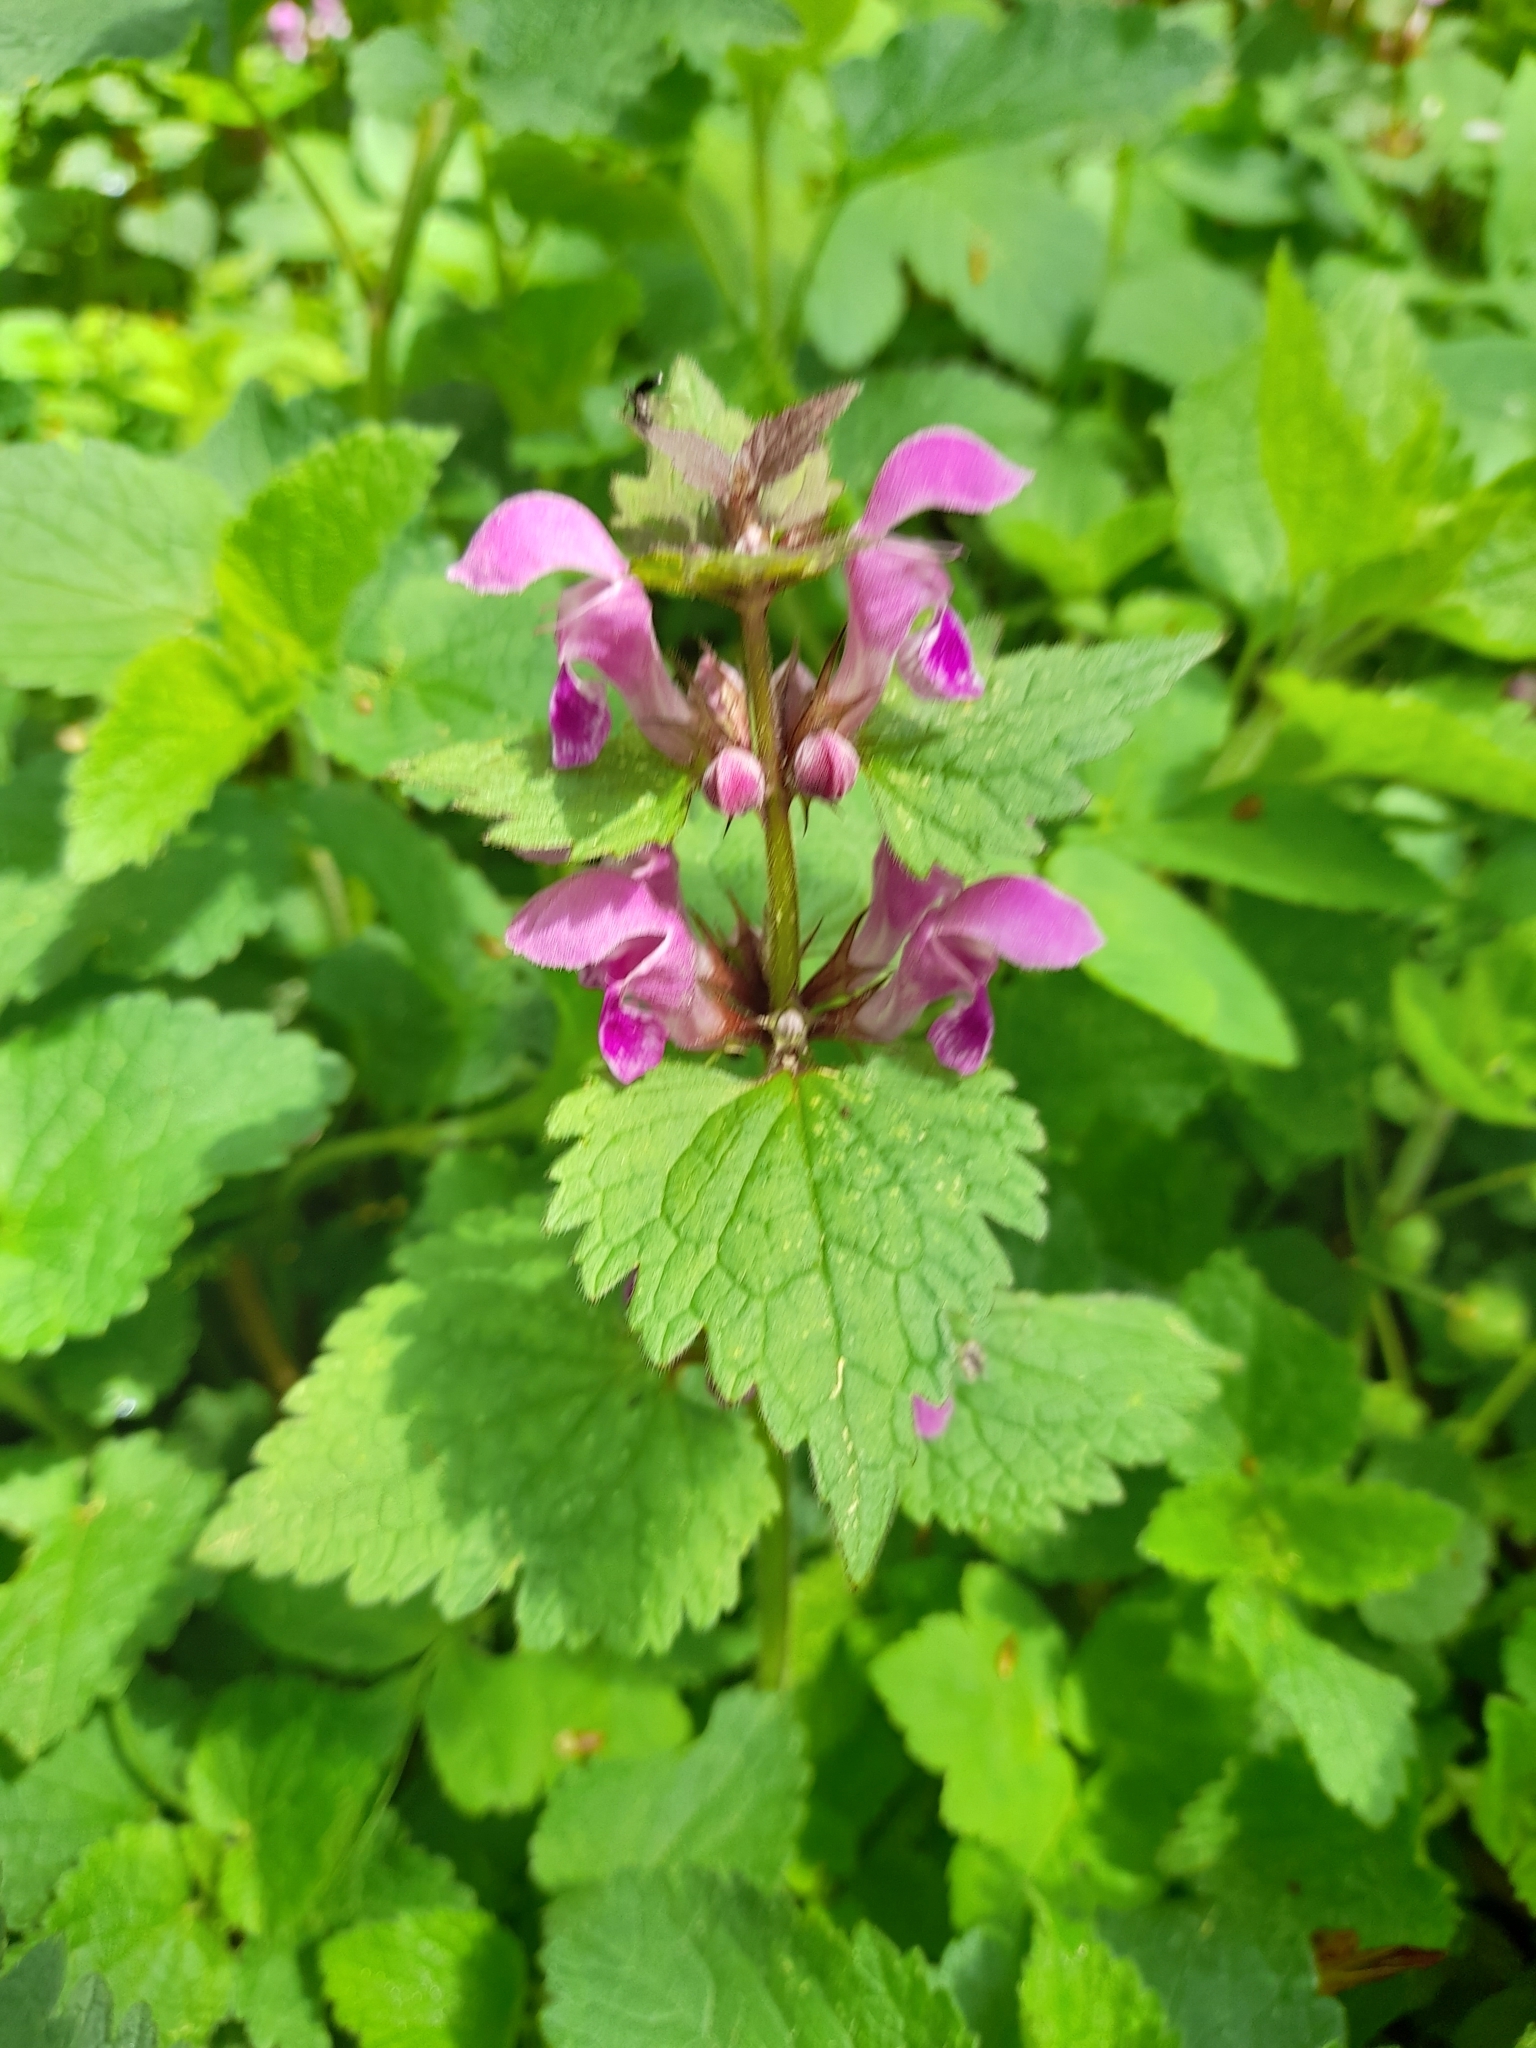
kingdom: Plantae
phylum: Tracheophyta
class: Magnoliopsida
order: Lamiales
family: Lamiaceae
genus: Lamium
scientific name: Lamium maculatum
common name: Spotted dead-nettle
